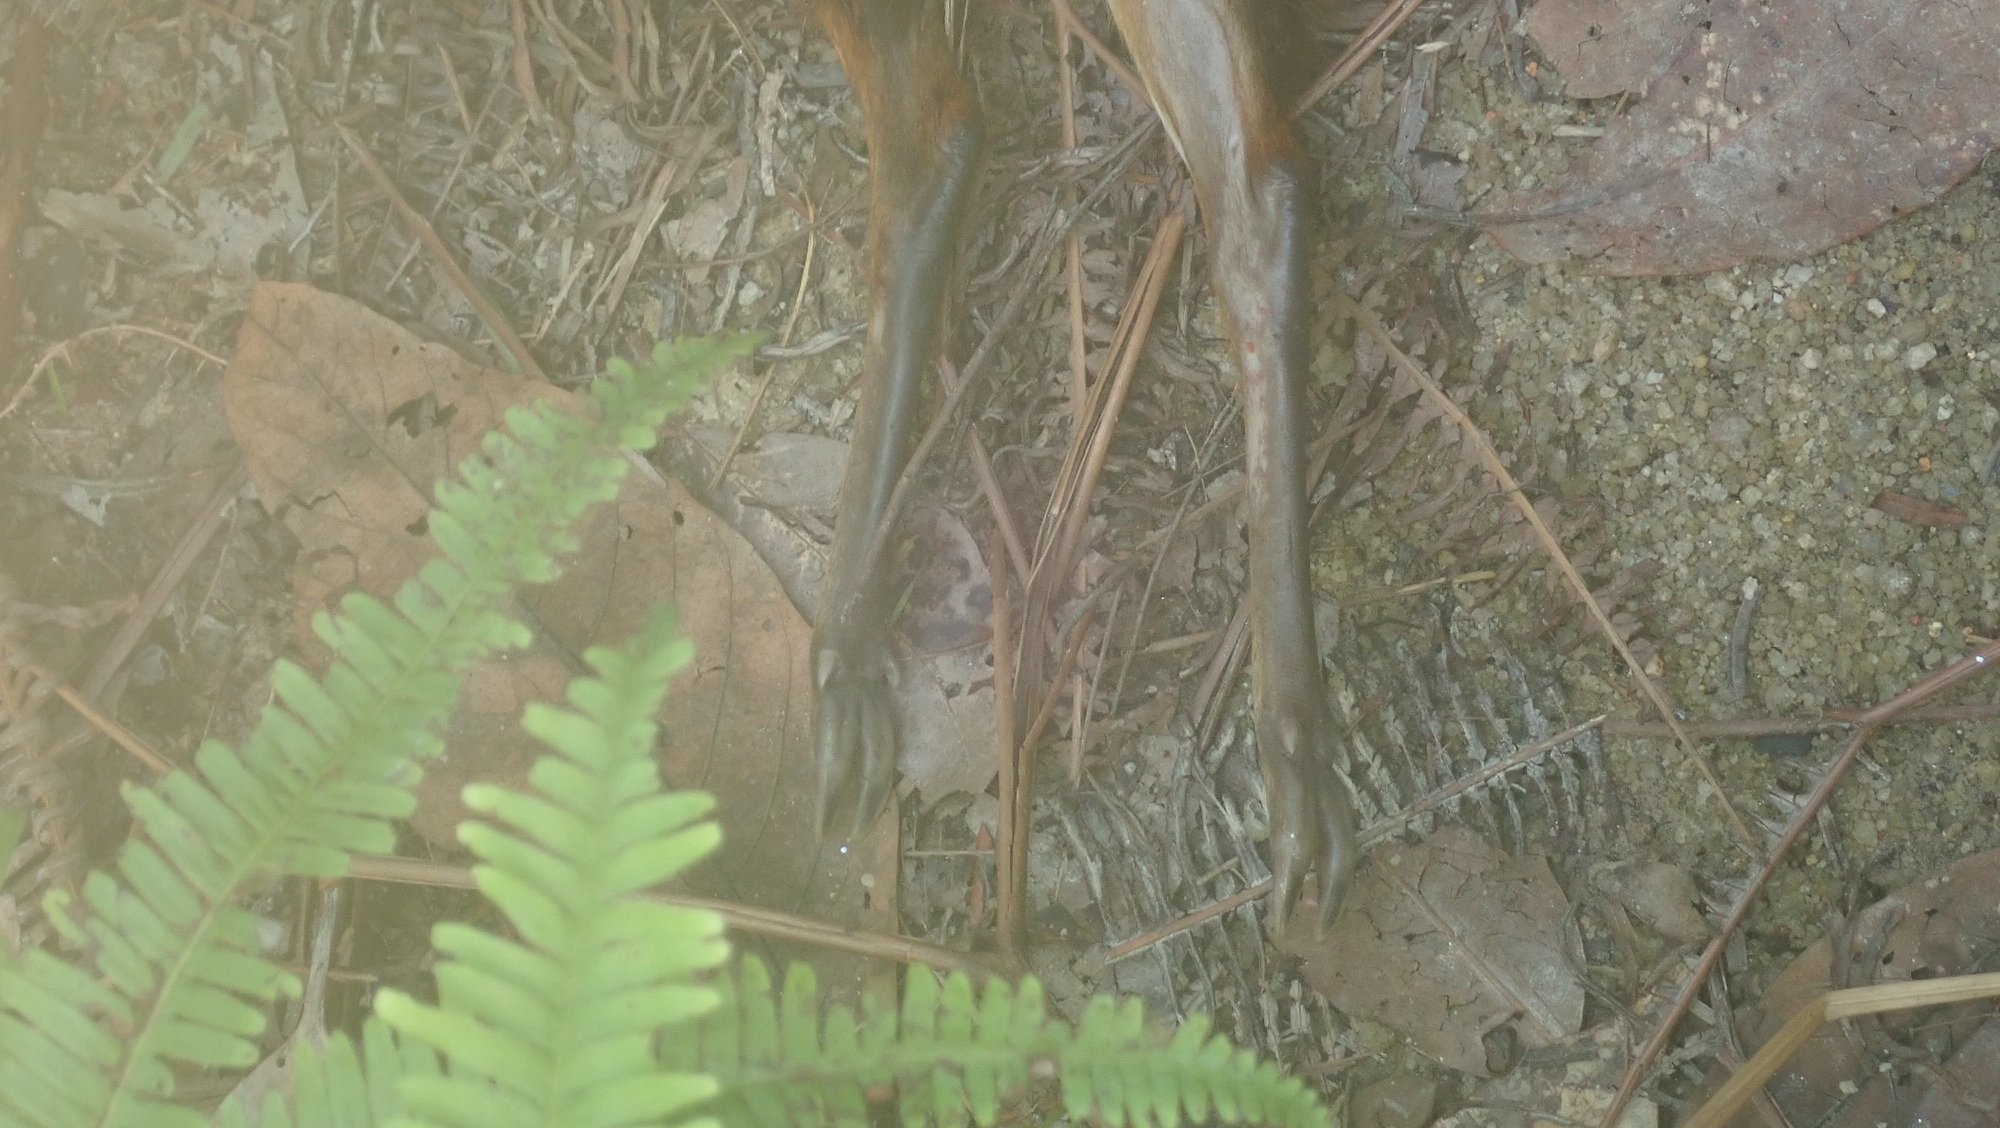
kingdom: Animalia
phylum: Chordata
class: Mammalia
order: Artiodactyla
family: Tragulidae
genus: Tragulus
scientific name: Tragulus kanchil
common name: Lesser mouse-deer
